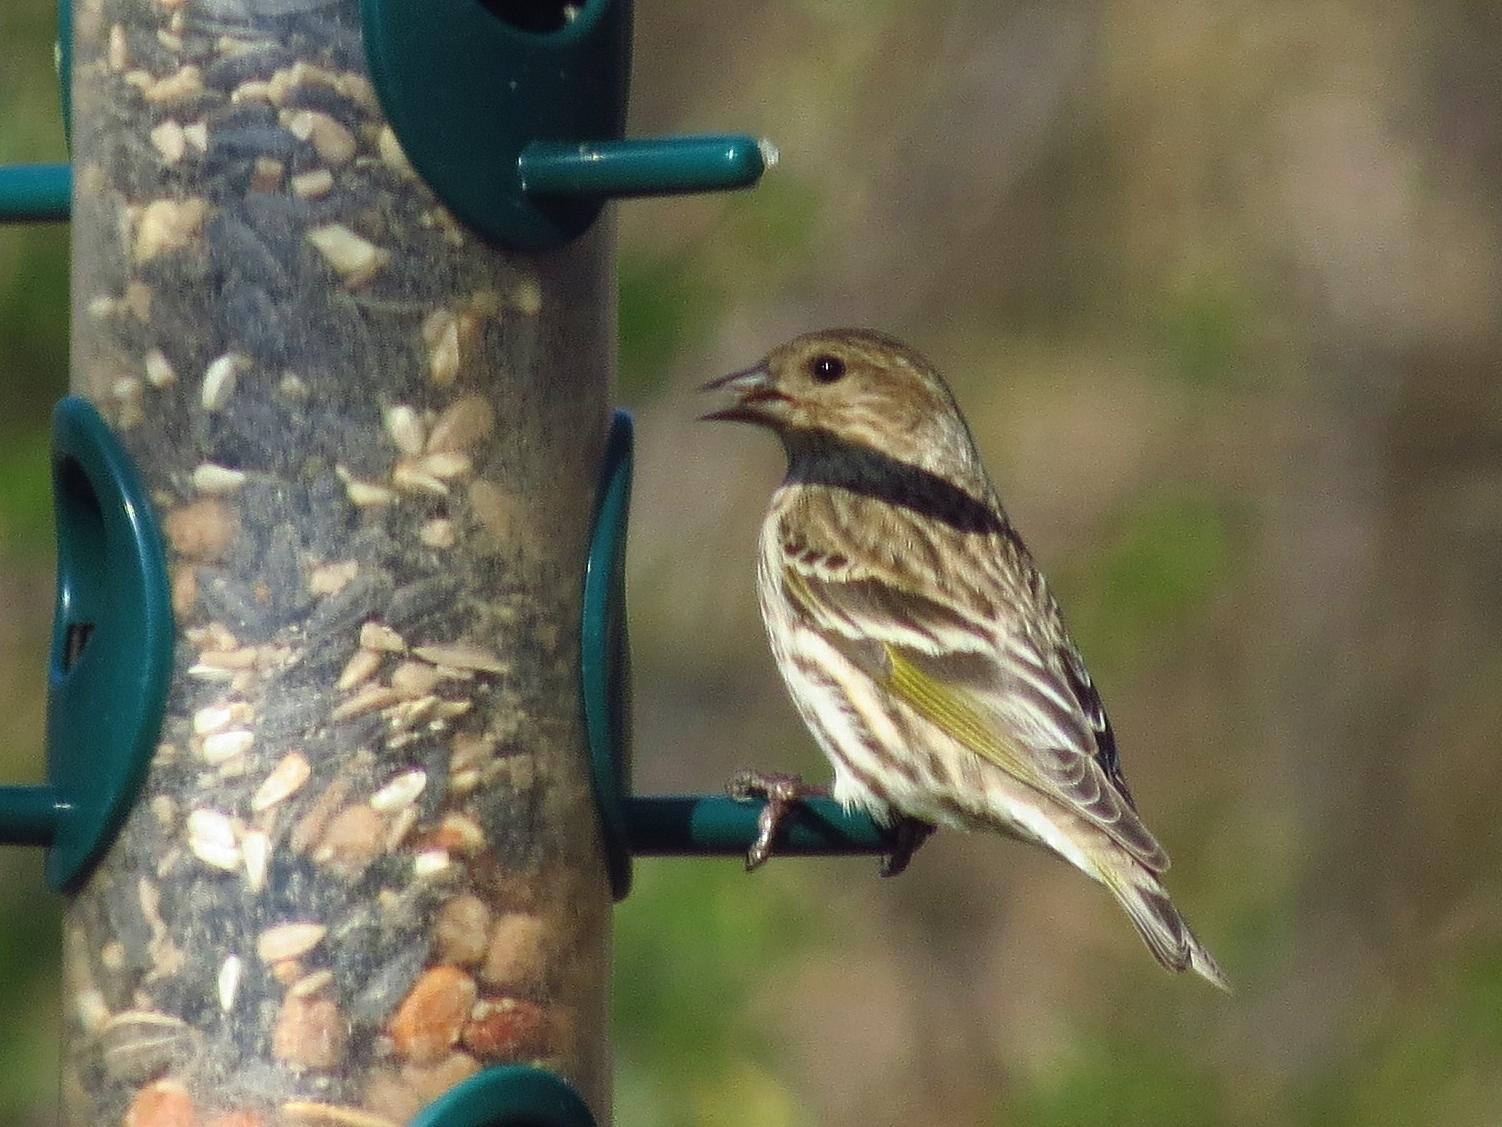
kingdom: Animalia
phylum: Chordata
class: Aves
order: Passeriformes
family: Fringillidae
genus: Spinus
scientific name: Spinus pinus
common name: Pine siskin
